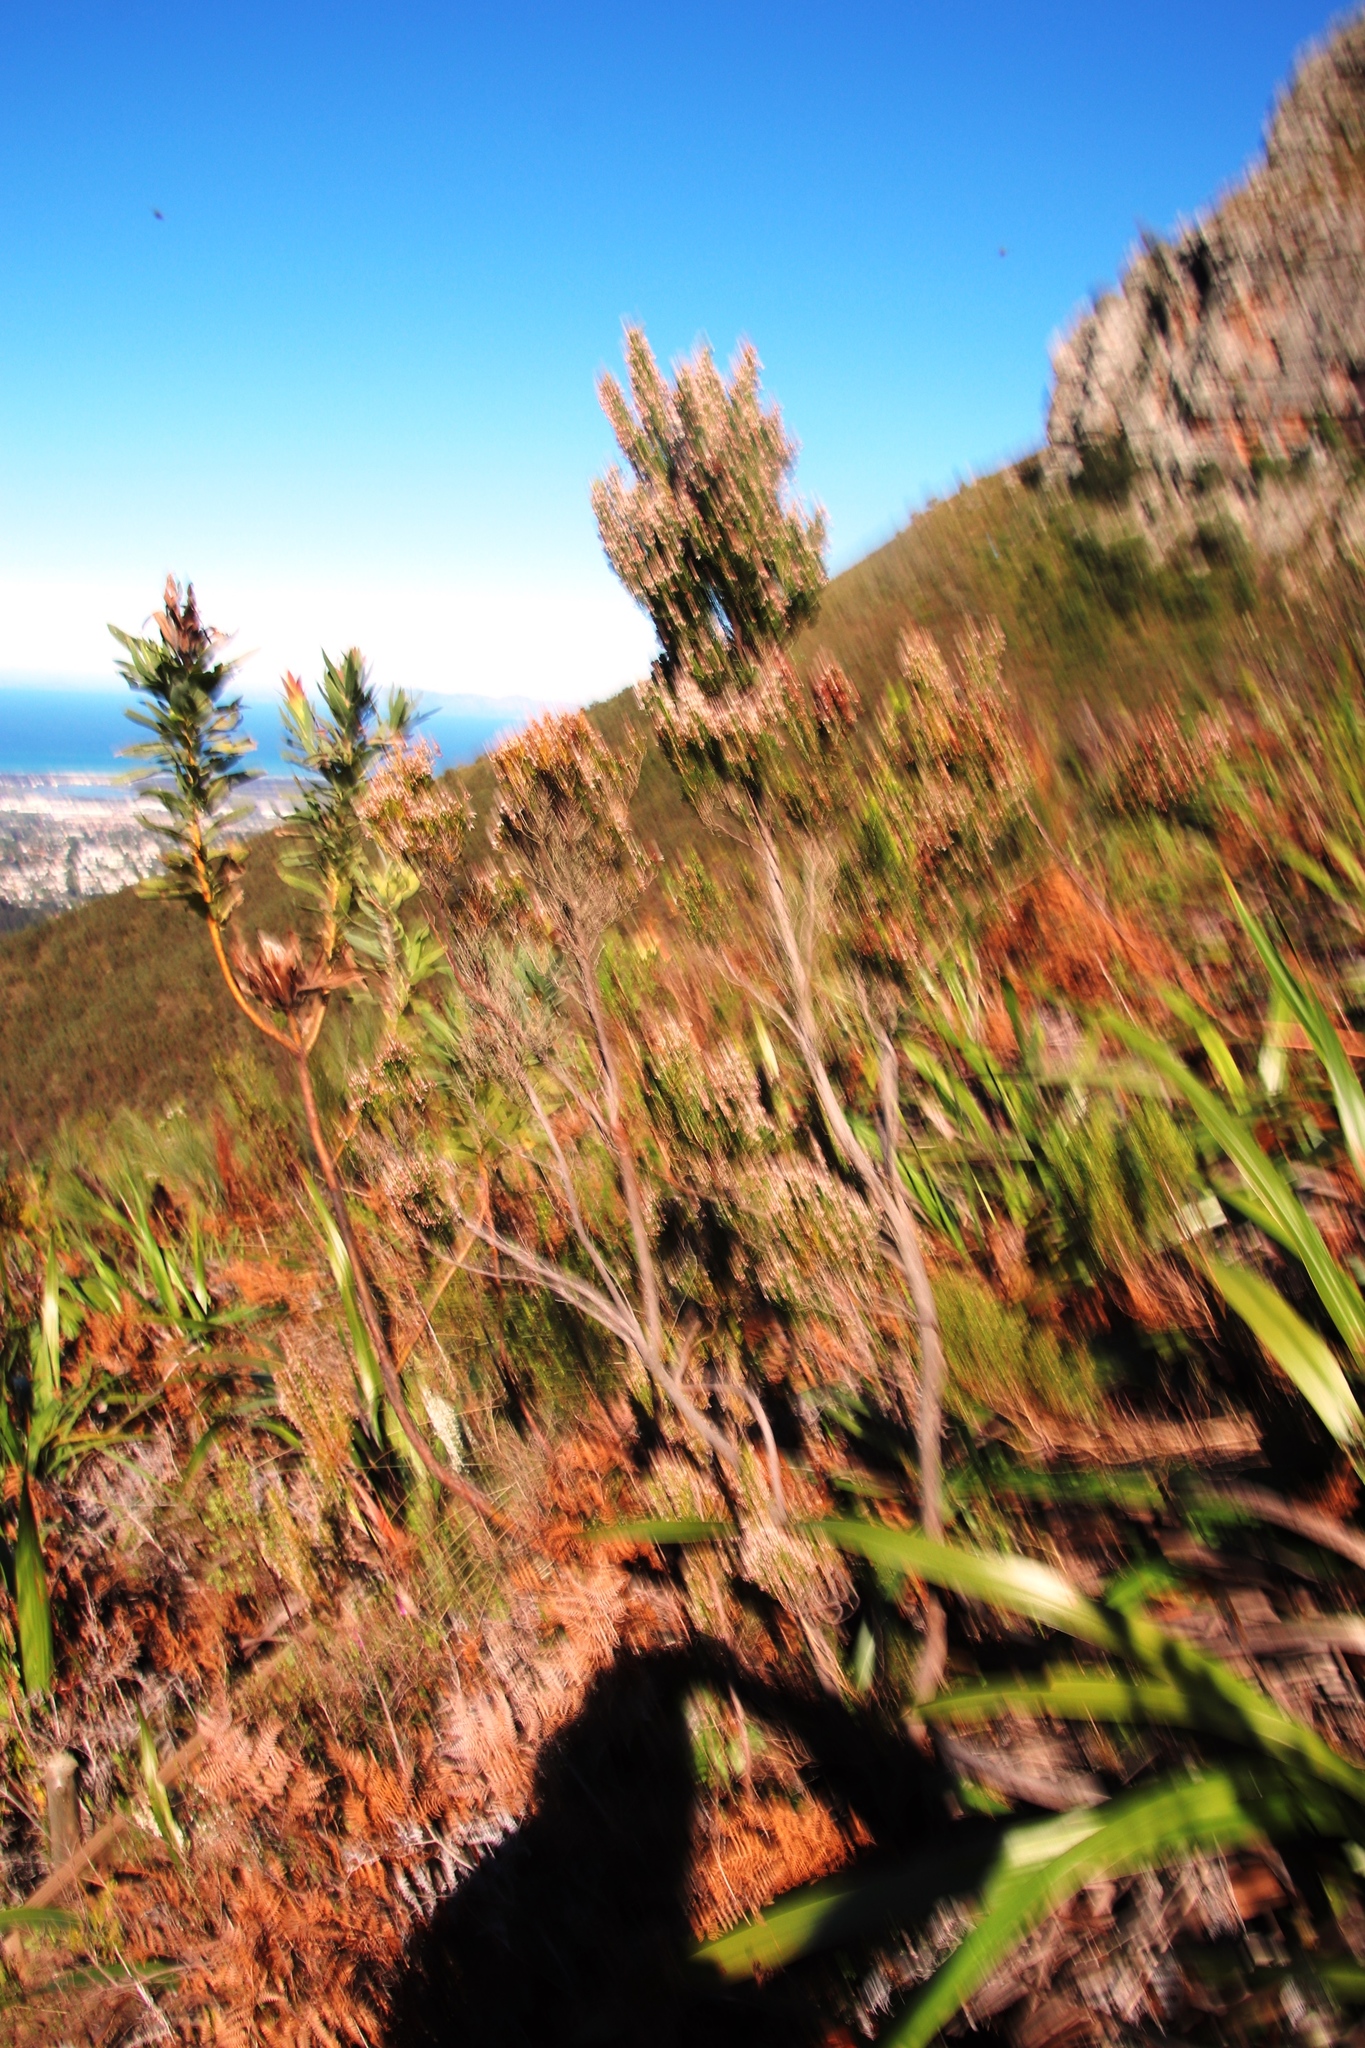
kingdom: Plantae
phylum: Tracheophyta
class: Magnoliopsida
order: Ericales
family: Ericaceae
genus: Erica
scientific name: Erica triflora
